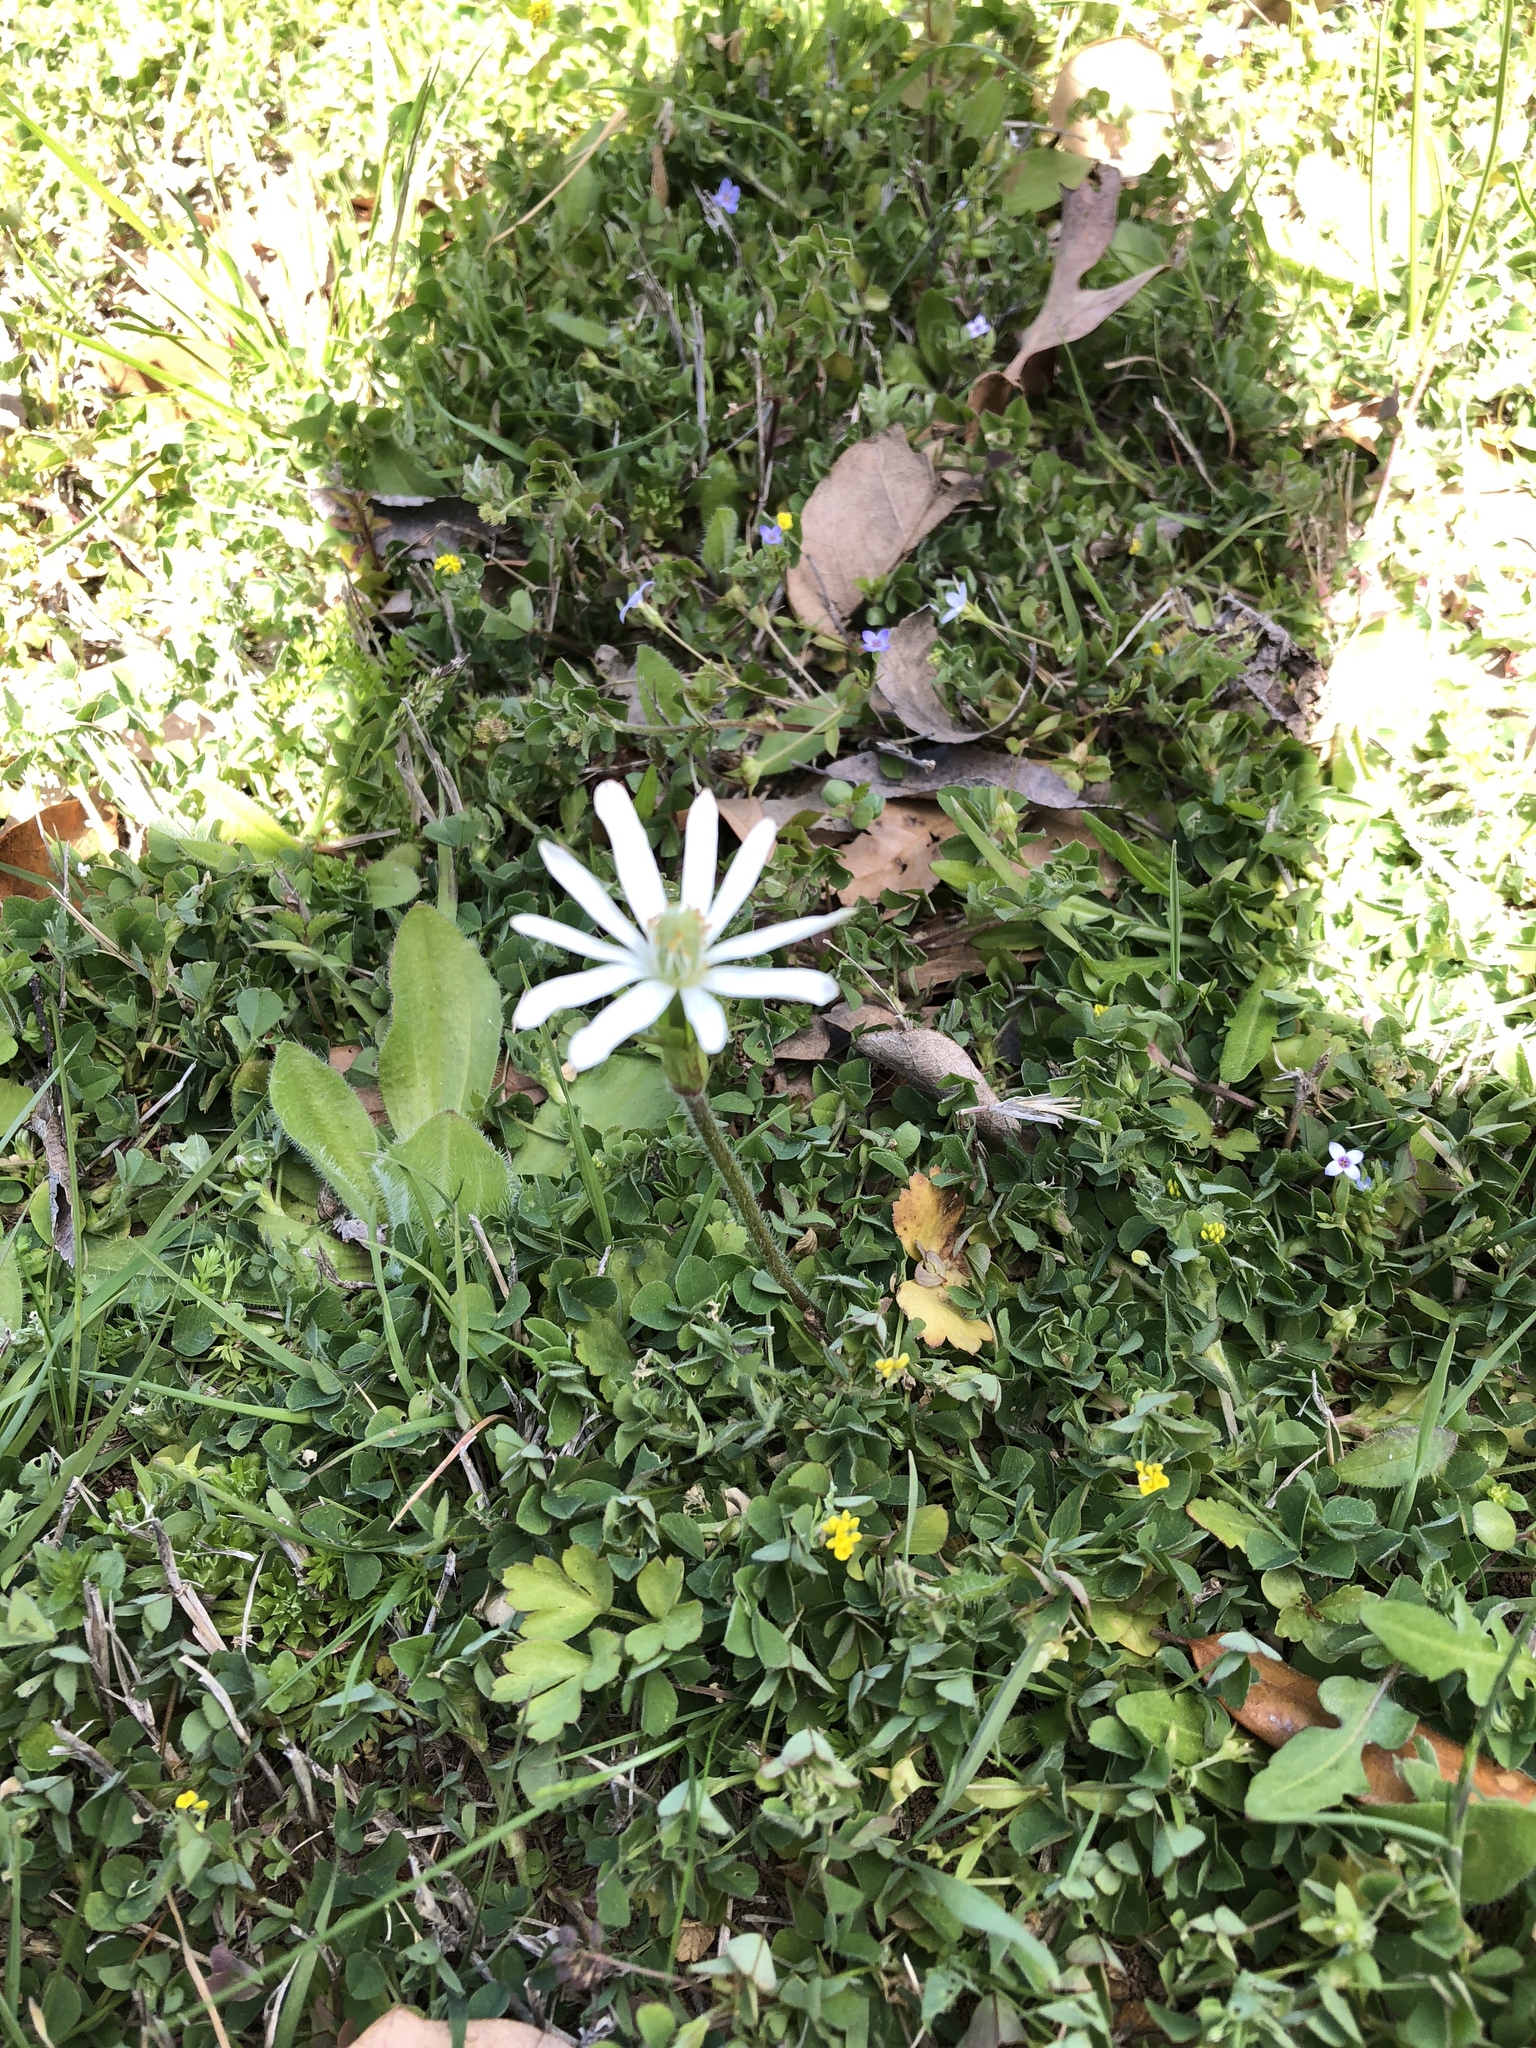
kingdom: Plantae
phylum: Tracheophyta
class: Magnoliopsida
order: Ranunculales
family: Ranunculaceae
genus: Anemone
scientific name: Anemone berlandieri
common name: Ten-petal anemone
